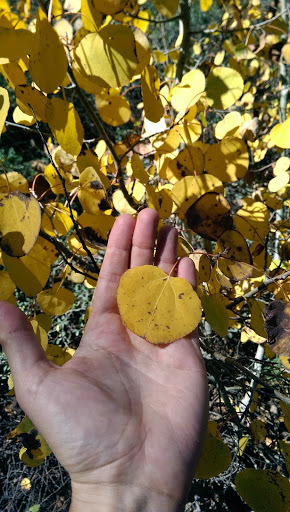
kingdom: Plantae
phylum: Tracheophyta
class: Magnoliopsida
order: Malpighiales
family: Salicaceae
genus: Populus
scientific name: Populus tremuloides
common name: Quaking aspen
